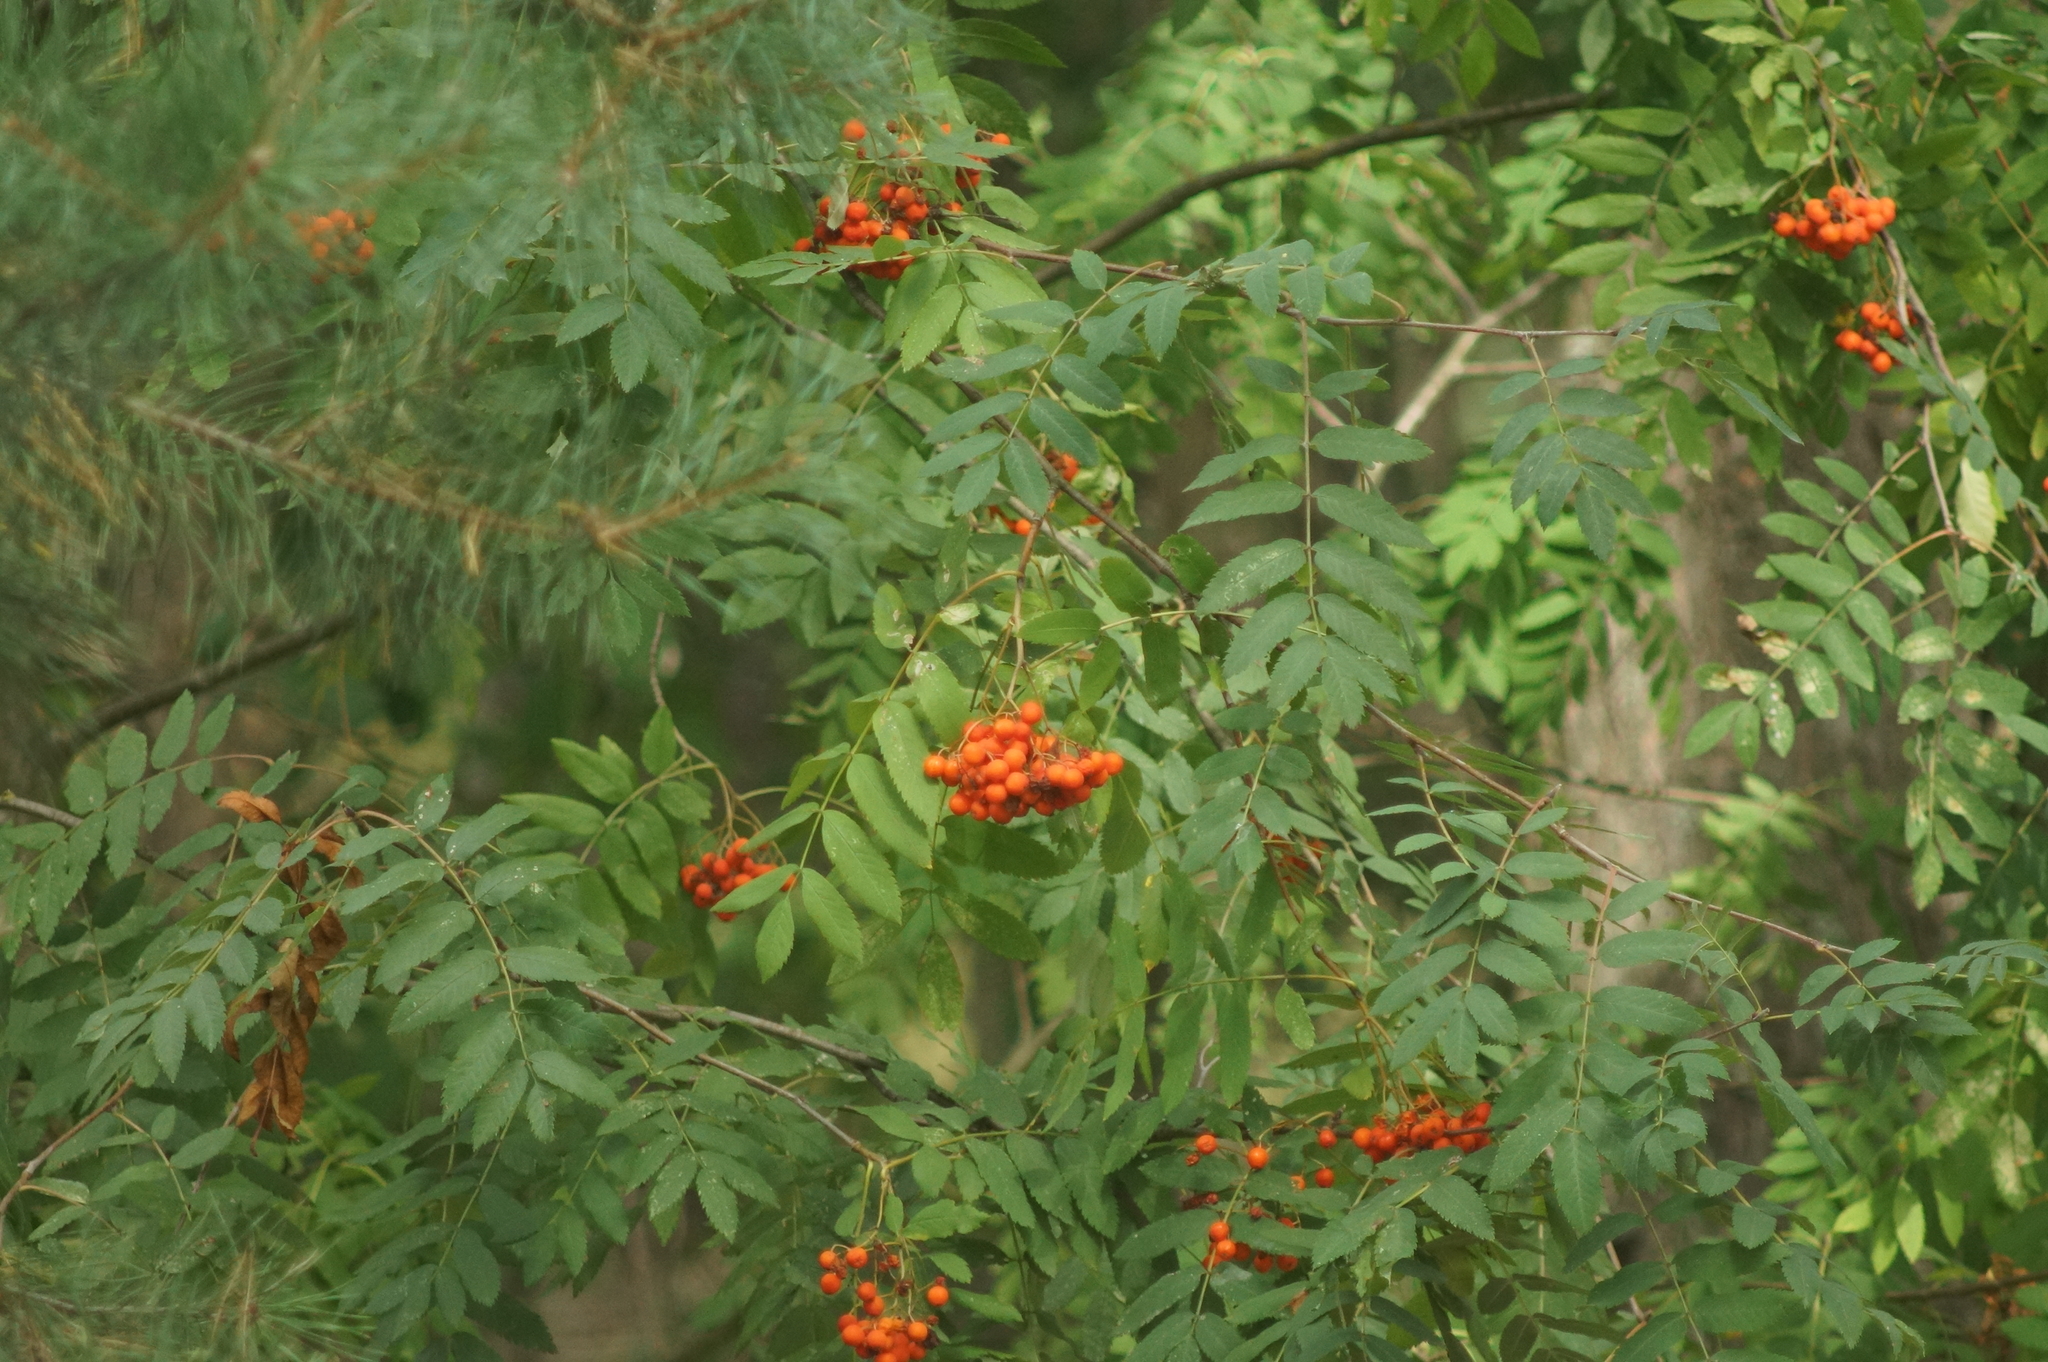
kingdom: Plantae
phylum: Tracheophyta
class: Magnoliopsida
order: Rosales
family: Rosaceae
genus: Sorbus
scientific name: Sorbus aucuparia
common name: Rowan
